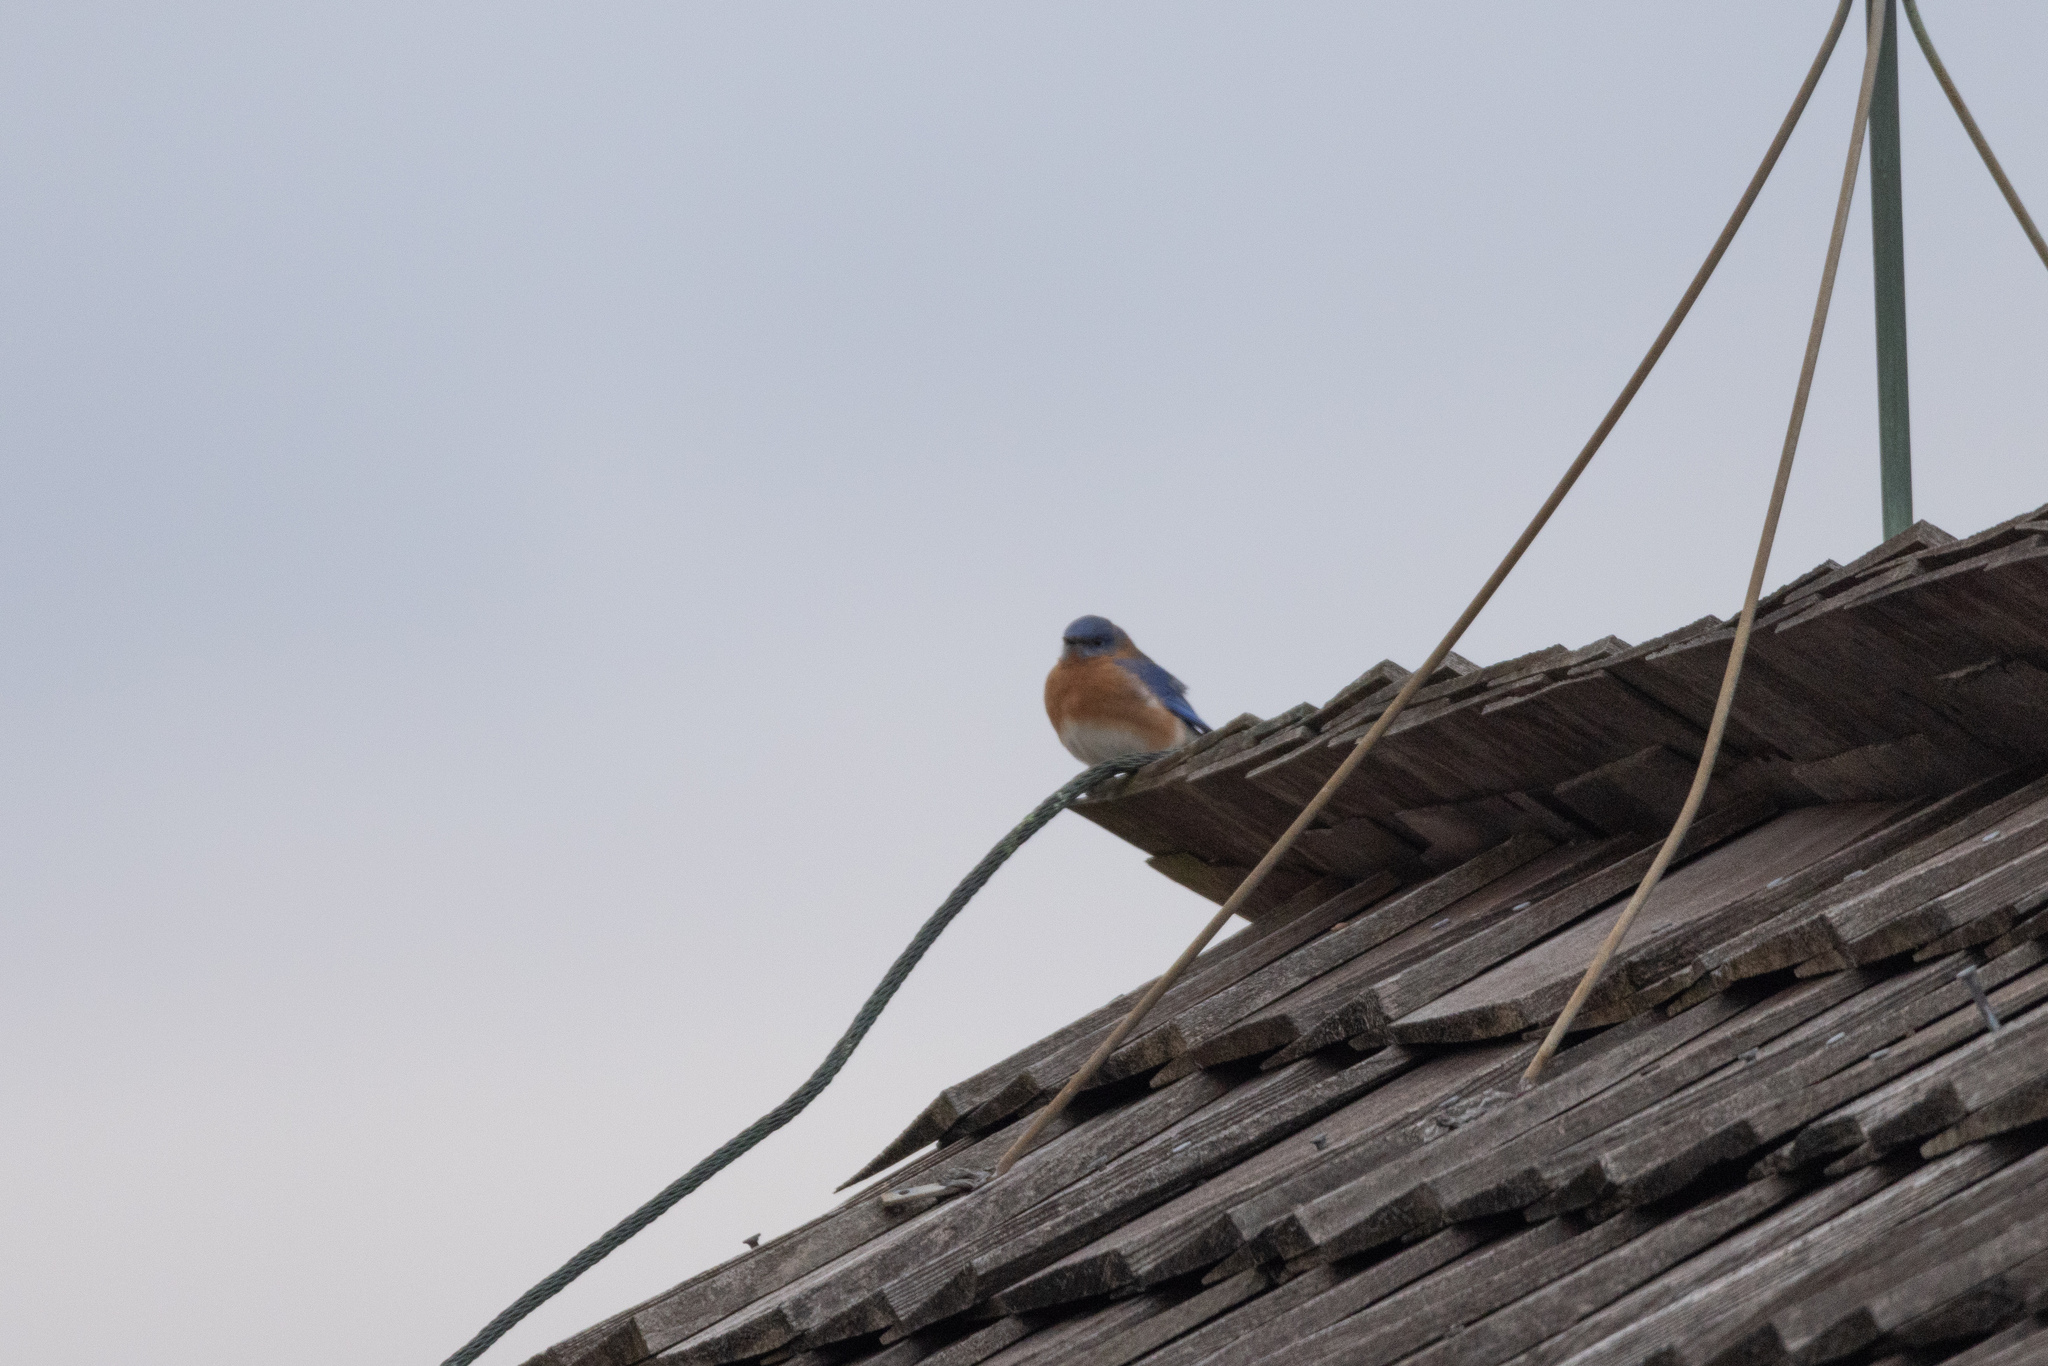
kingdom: Animalia
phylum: Chordata
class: Aves
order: Passeriformes
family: Turdidae
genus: Sialia
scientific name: Sialia sialis
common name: Eastern bluebird
